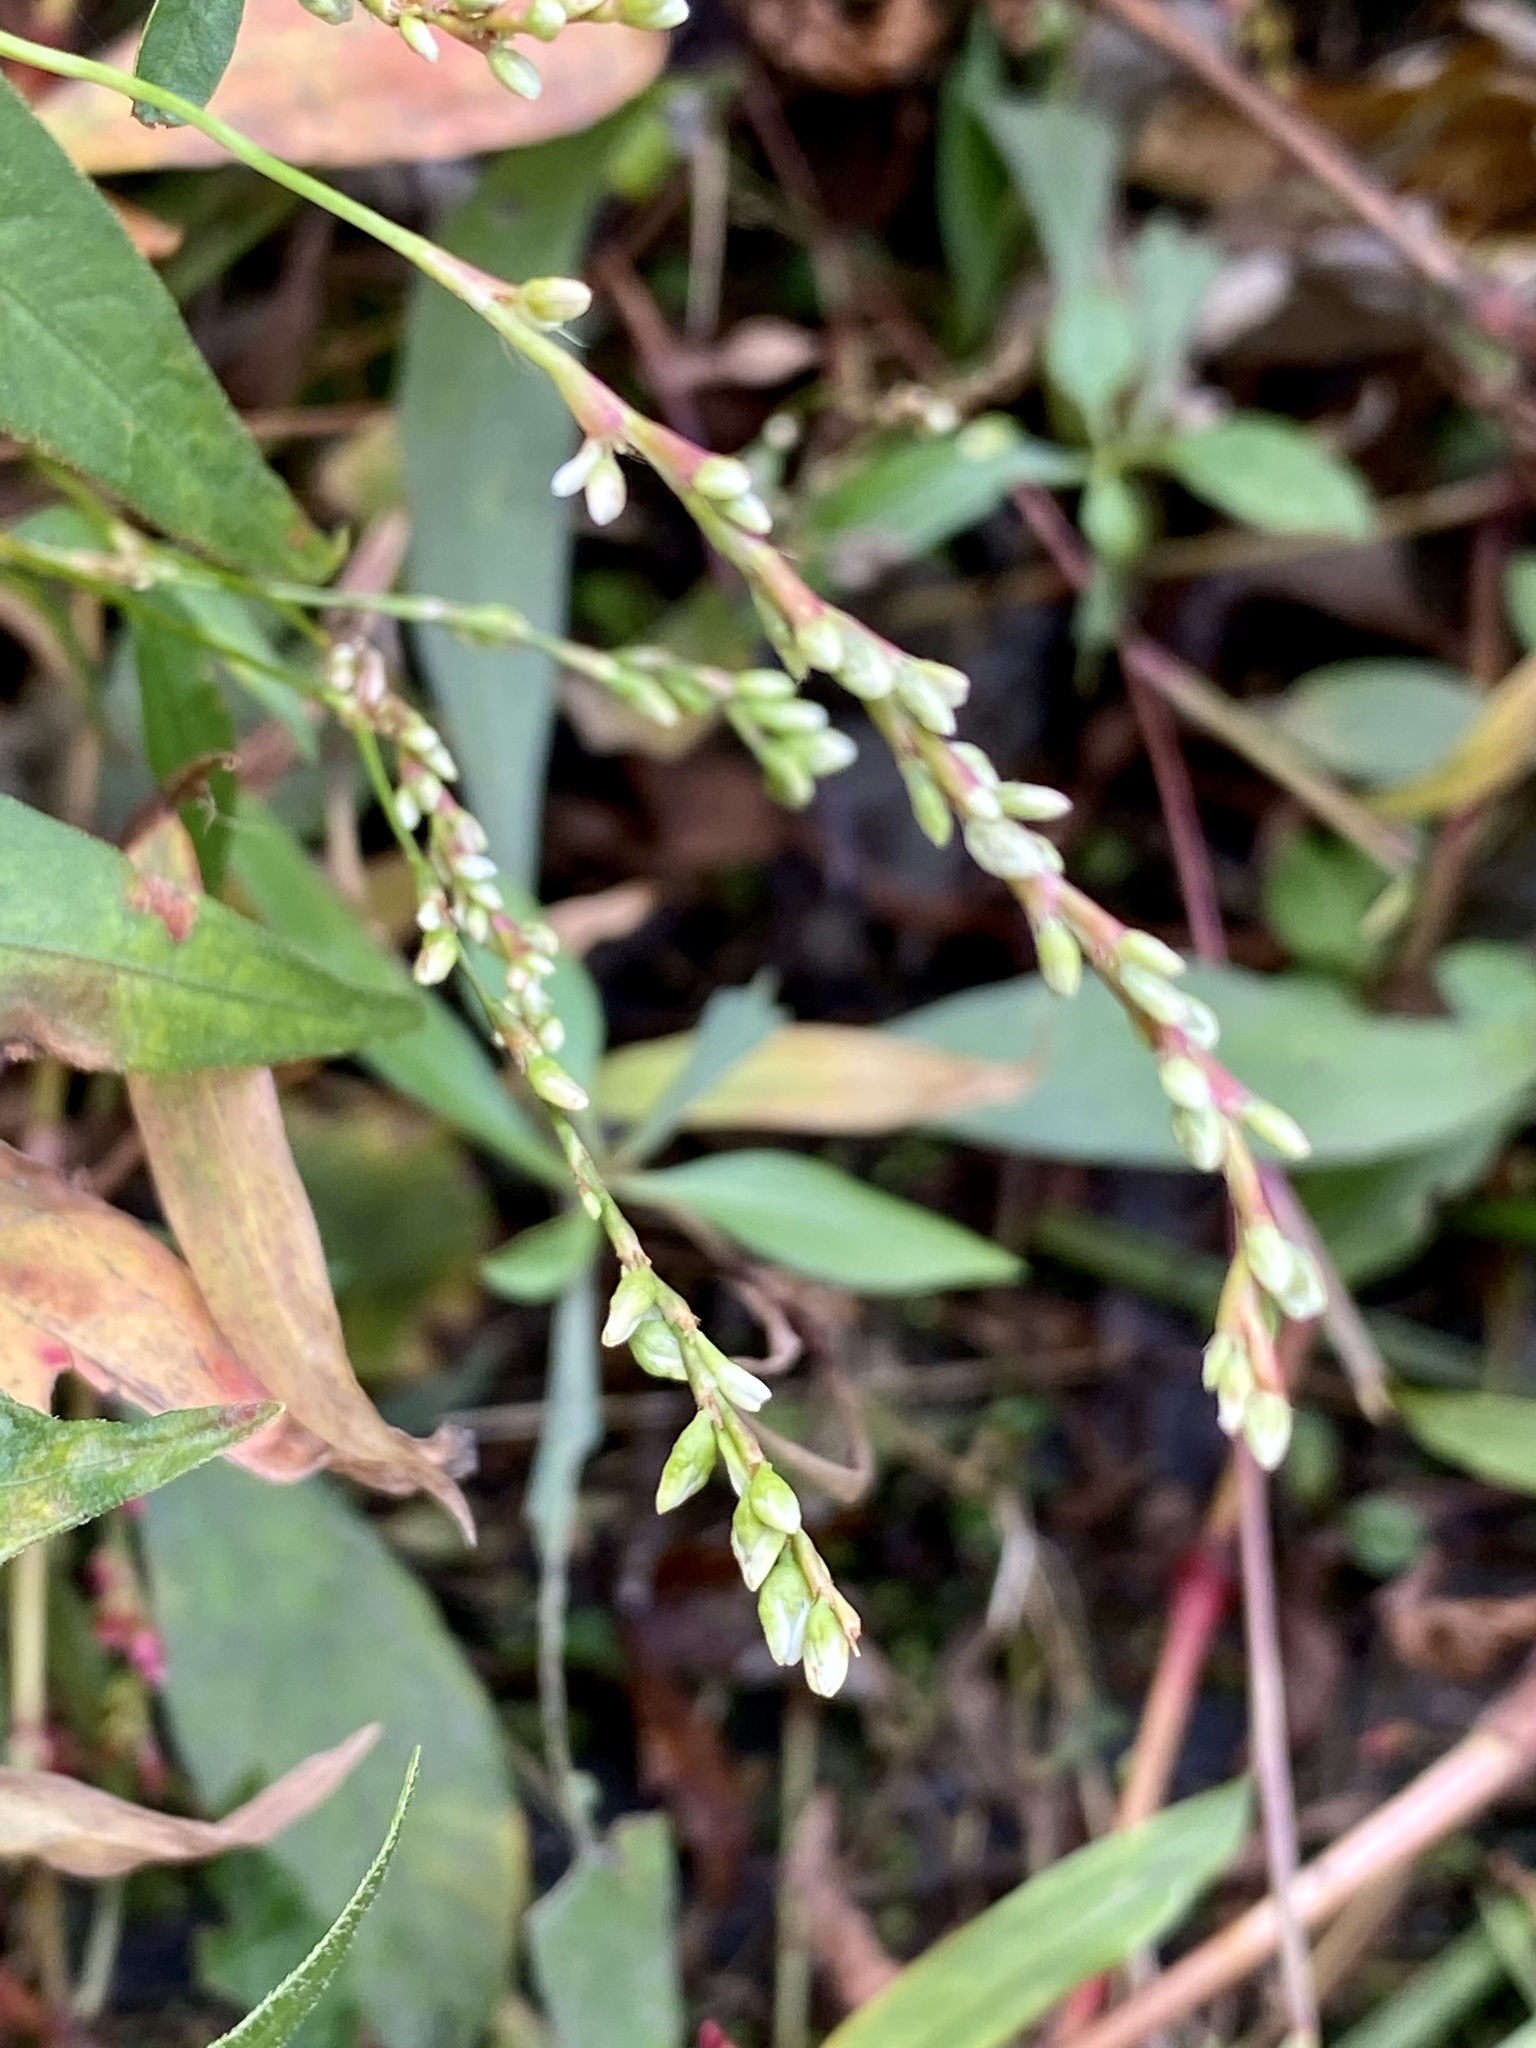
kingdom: Plantae
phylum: Tracheophyta
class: Magnoliopsida
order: Caryophyllales
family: Polygonaceae
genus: Persicaria
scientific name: Persicaria punctata
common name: Dotted smartweed
